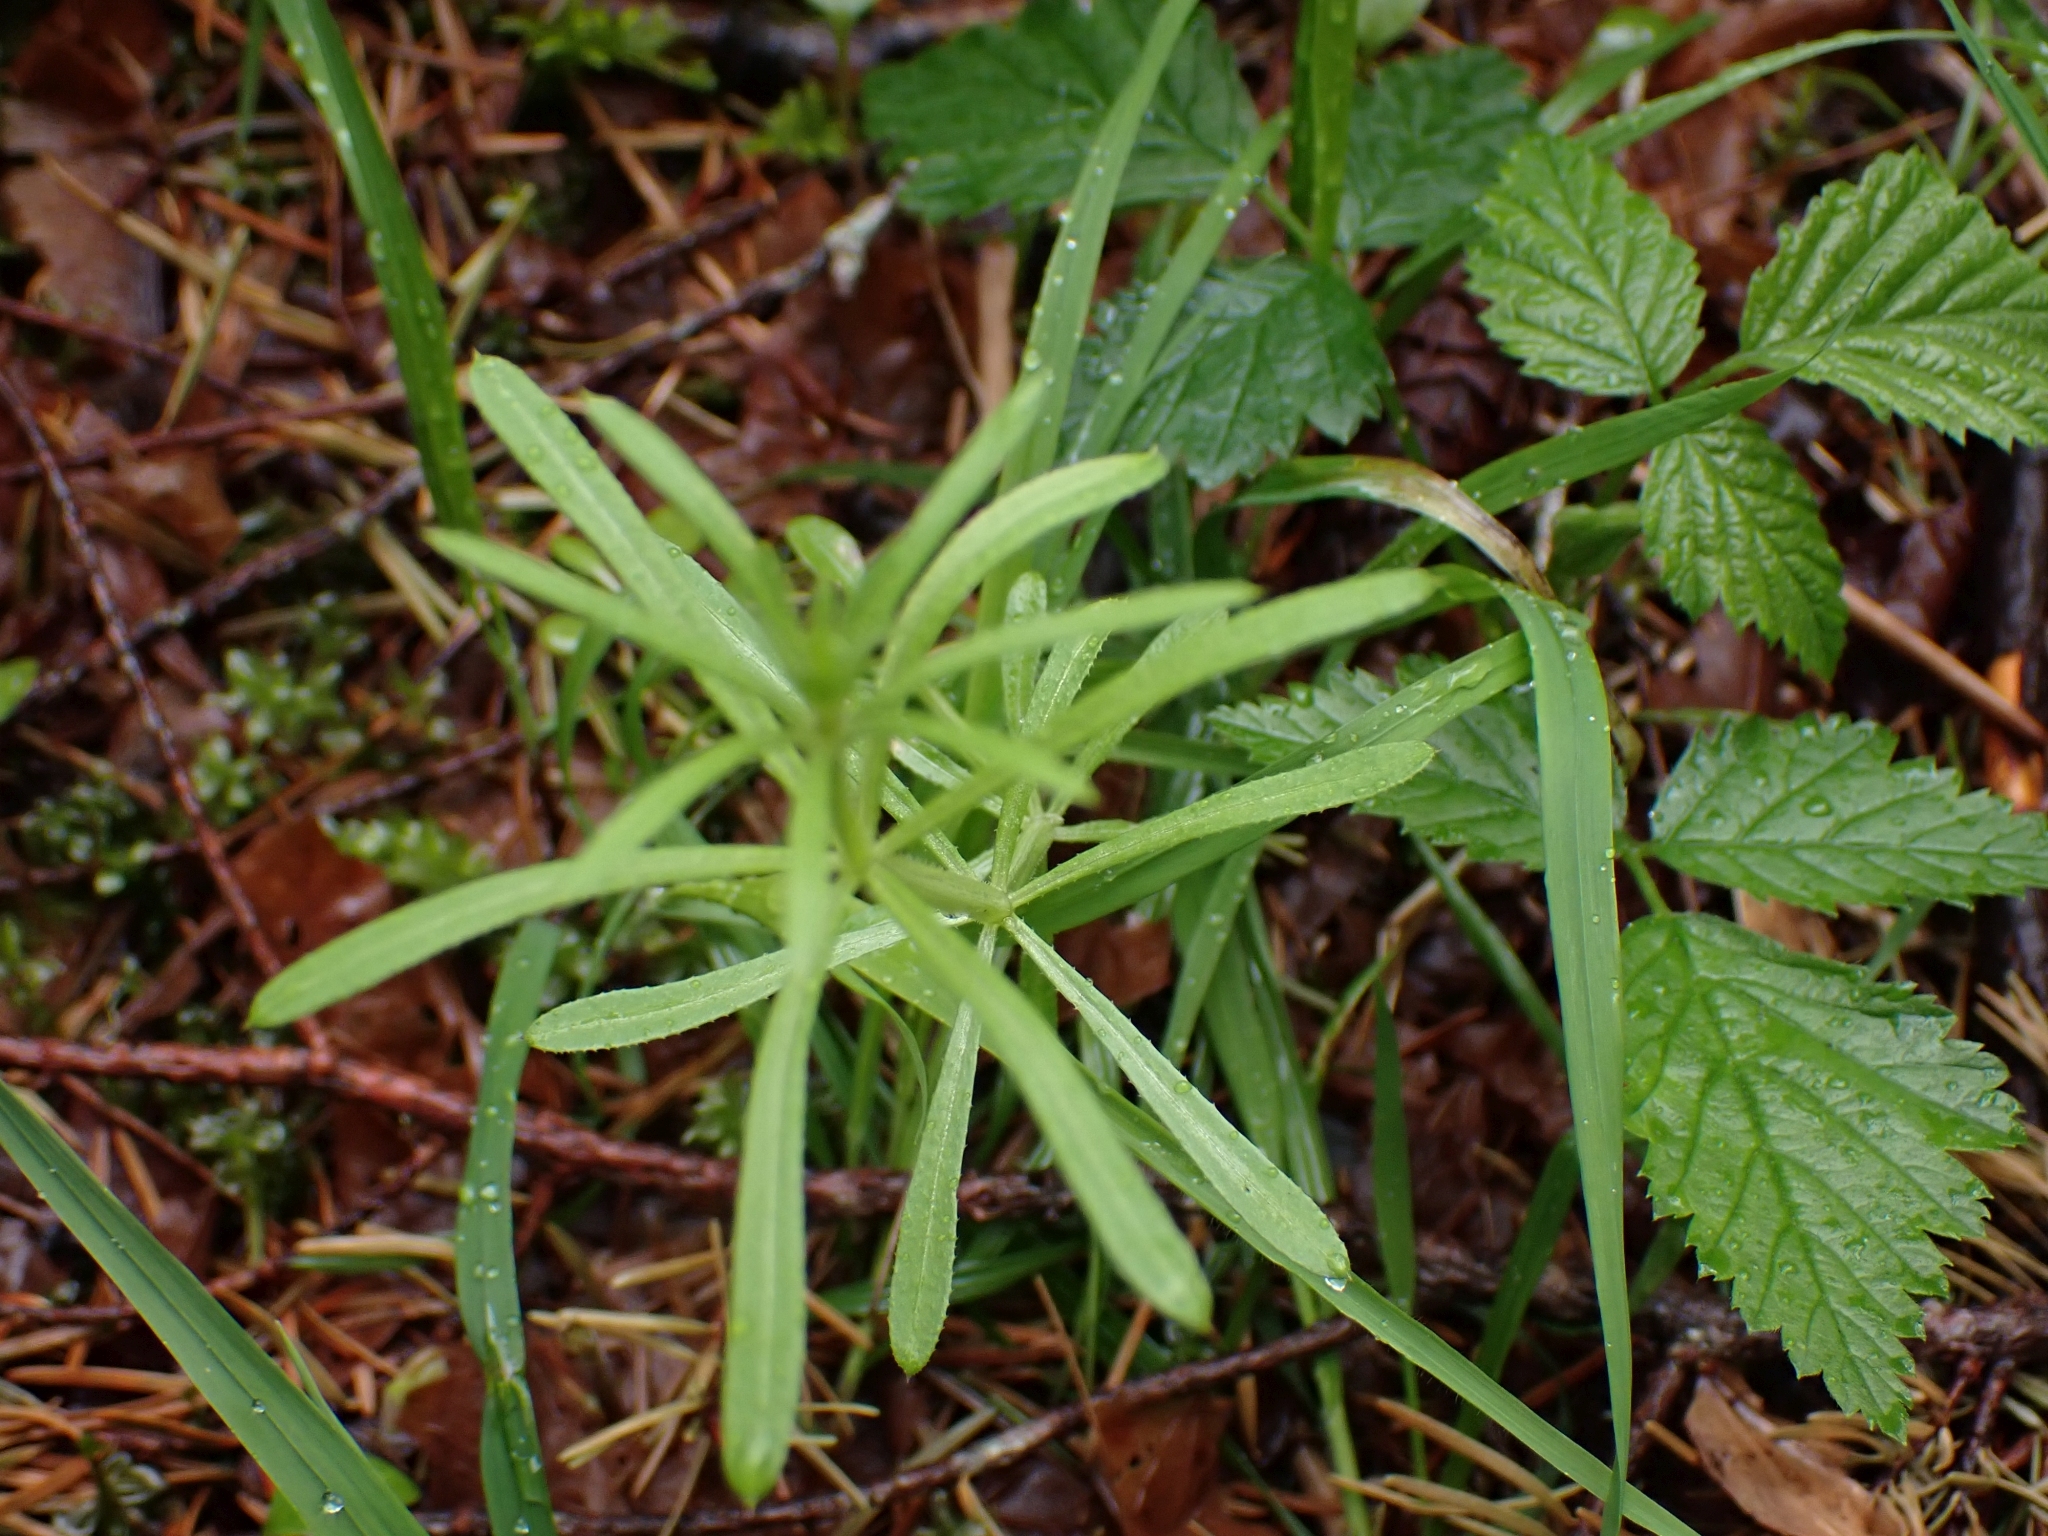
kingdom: Plantae
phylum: Tracheophyta
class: Magnoliopsida
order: Gentianales
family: Rubiaceae
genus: Galium
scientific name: Galium aparine
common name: Cleavers
